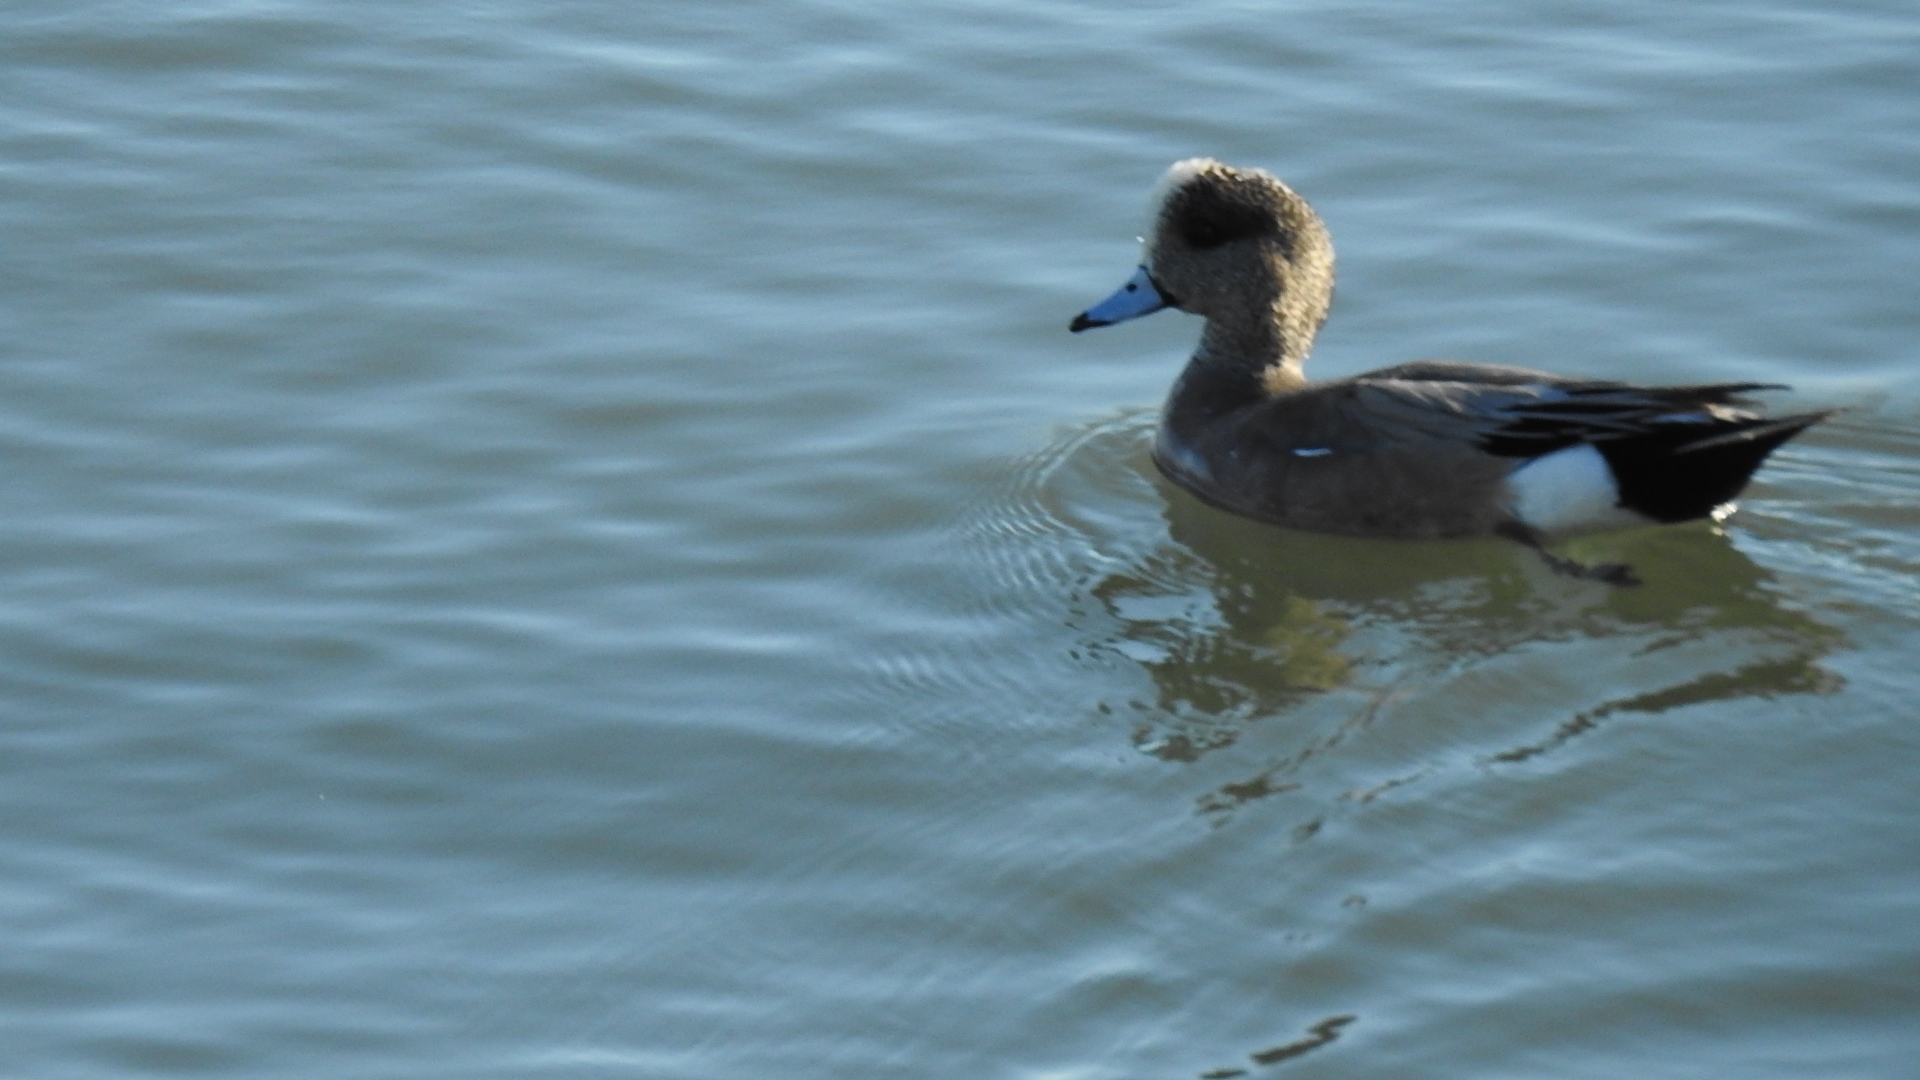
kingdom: Animalia
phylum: Chordata
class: Aves
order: Anseriformes
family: Anatidae
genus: Mareca
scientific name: Mareca americana
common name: American wigeon
